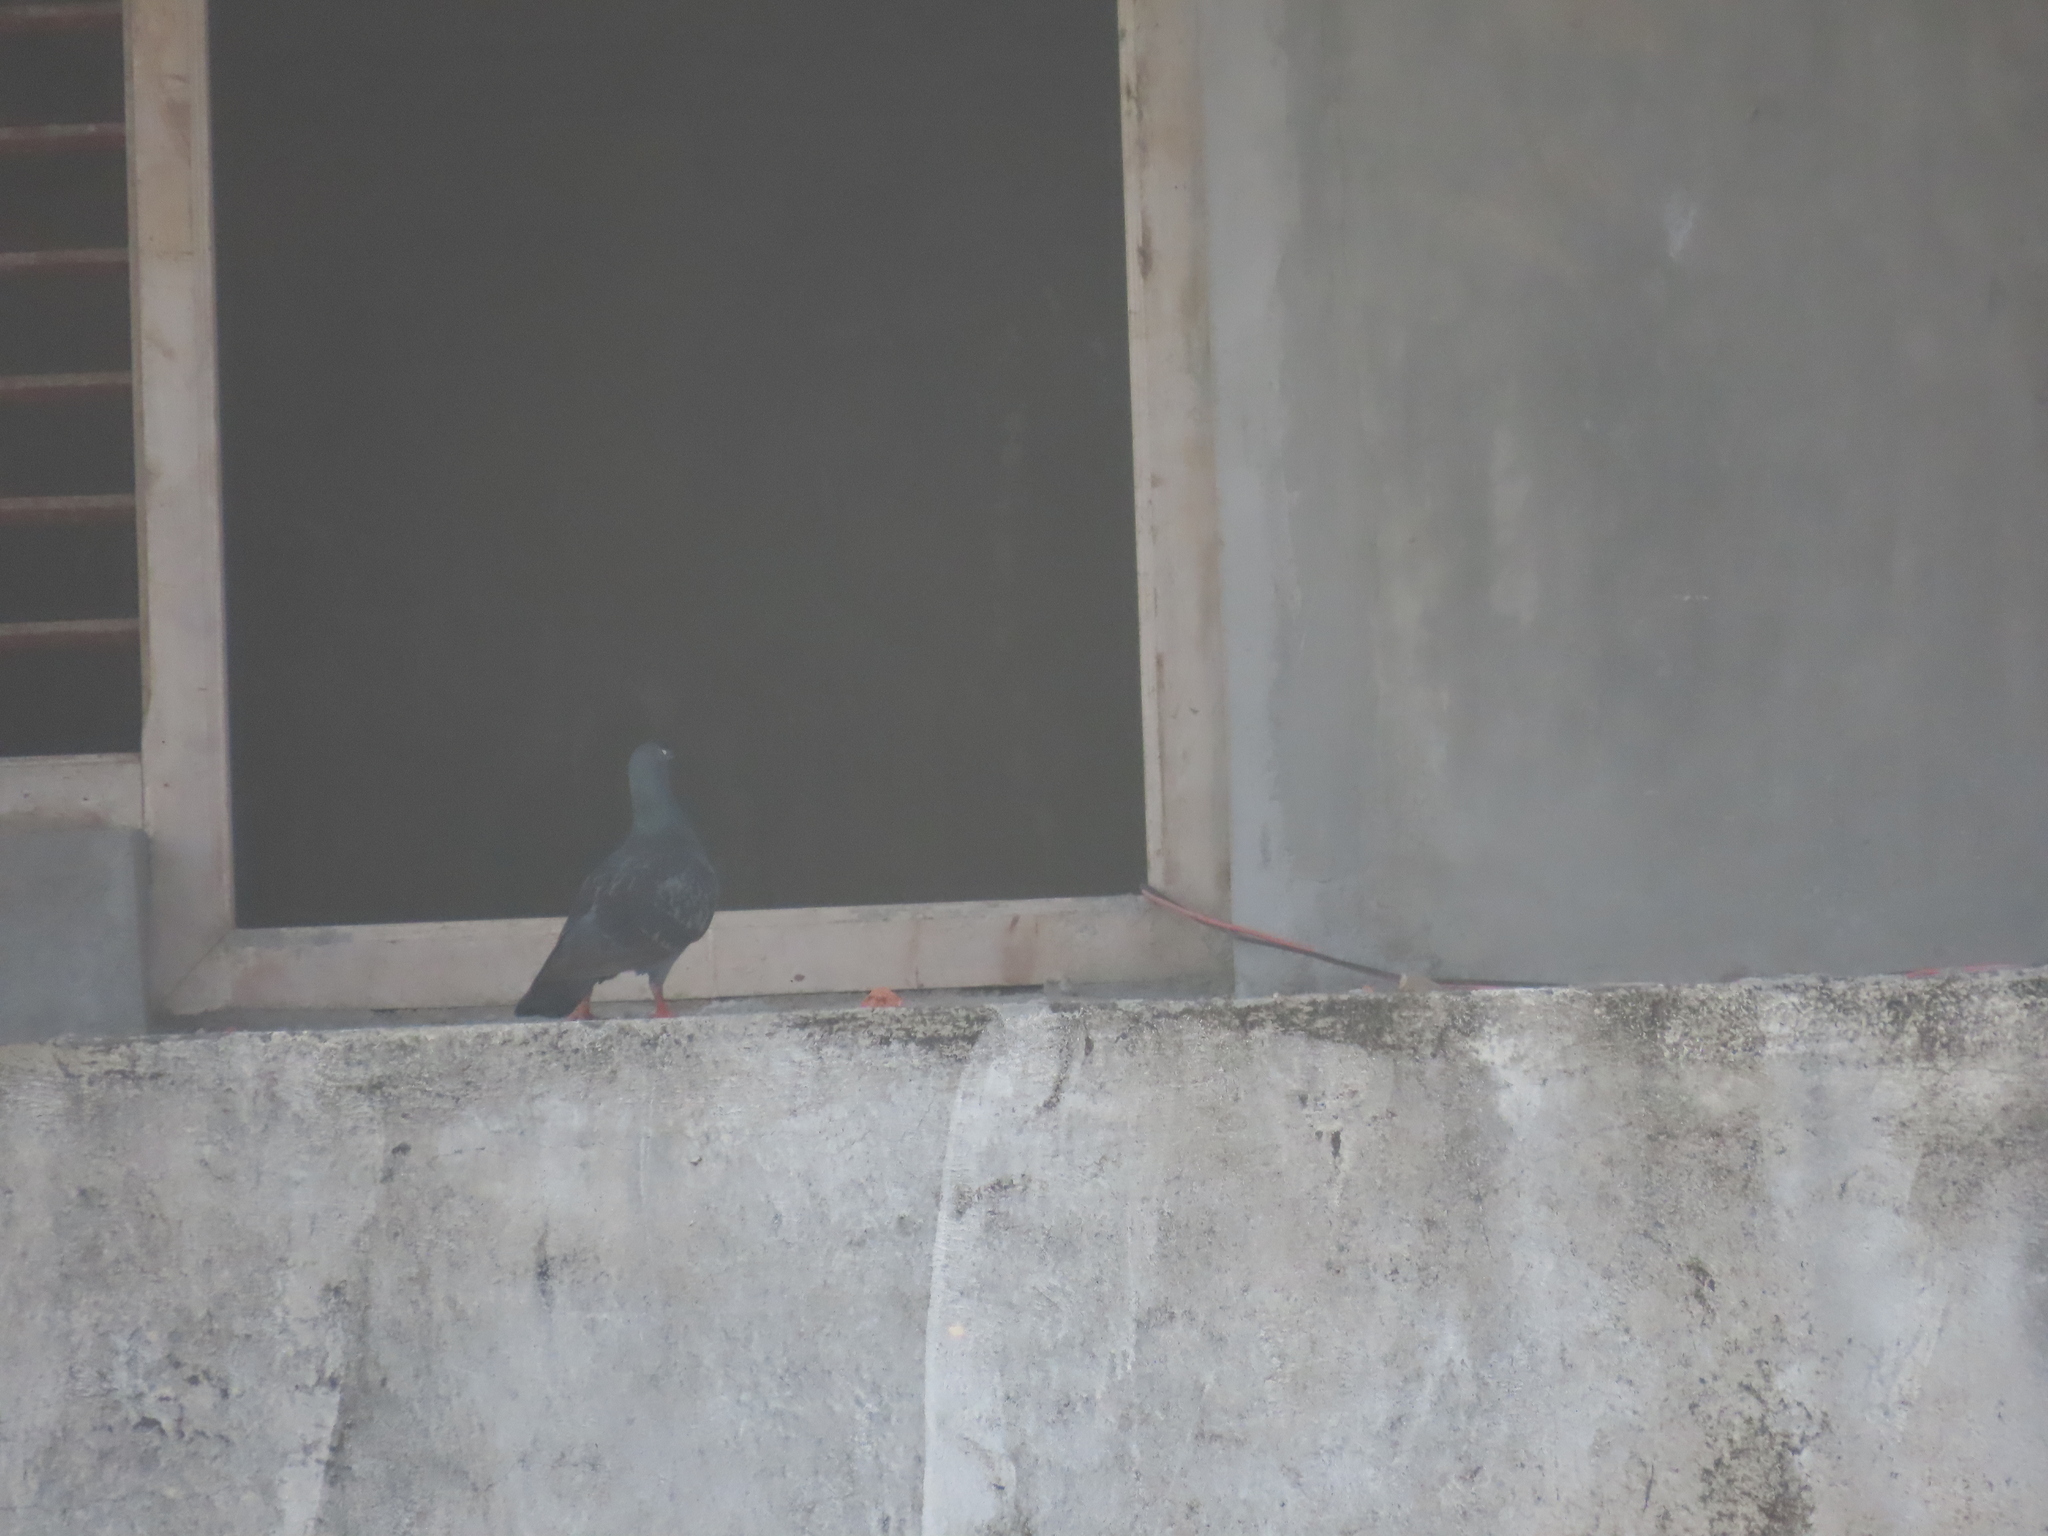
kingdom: Animalia
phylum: Chordata
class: Aves
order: Columbiformes
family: Columbidae
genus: Columba
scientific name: Columba livia
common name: Rock pigeon
